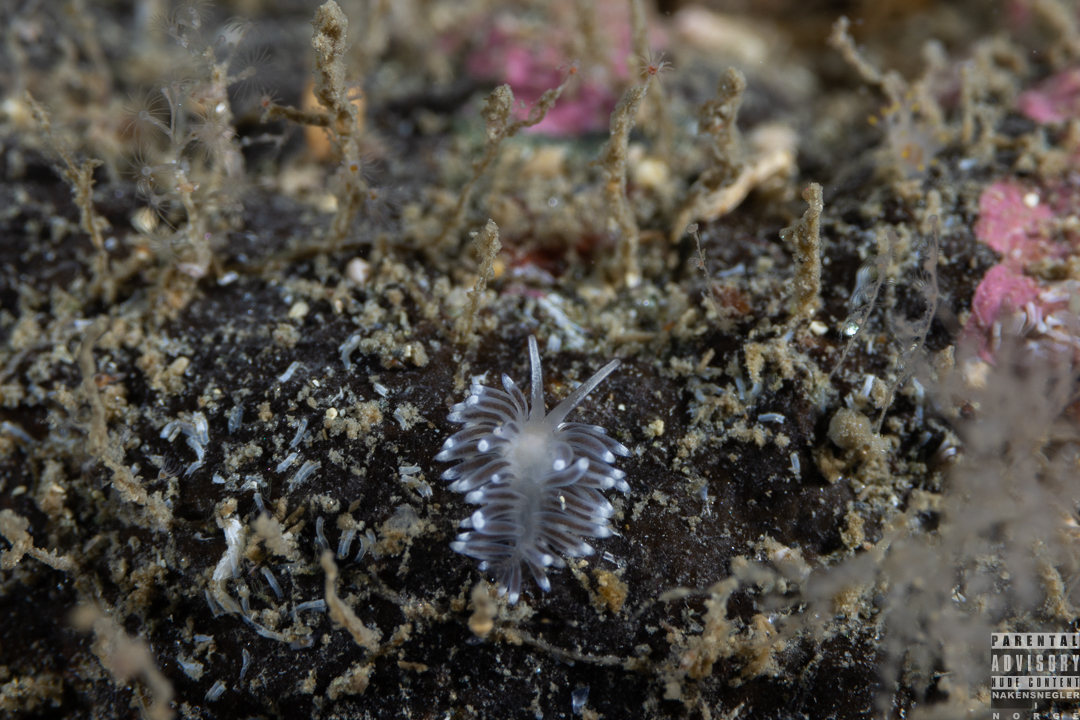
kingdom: Animalia
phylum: Mollusca
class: Gastropoda
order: Nudibranchia
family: Cuthonellidae
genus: Cuthonella
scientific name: Cuthonella concinna
